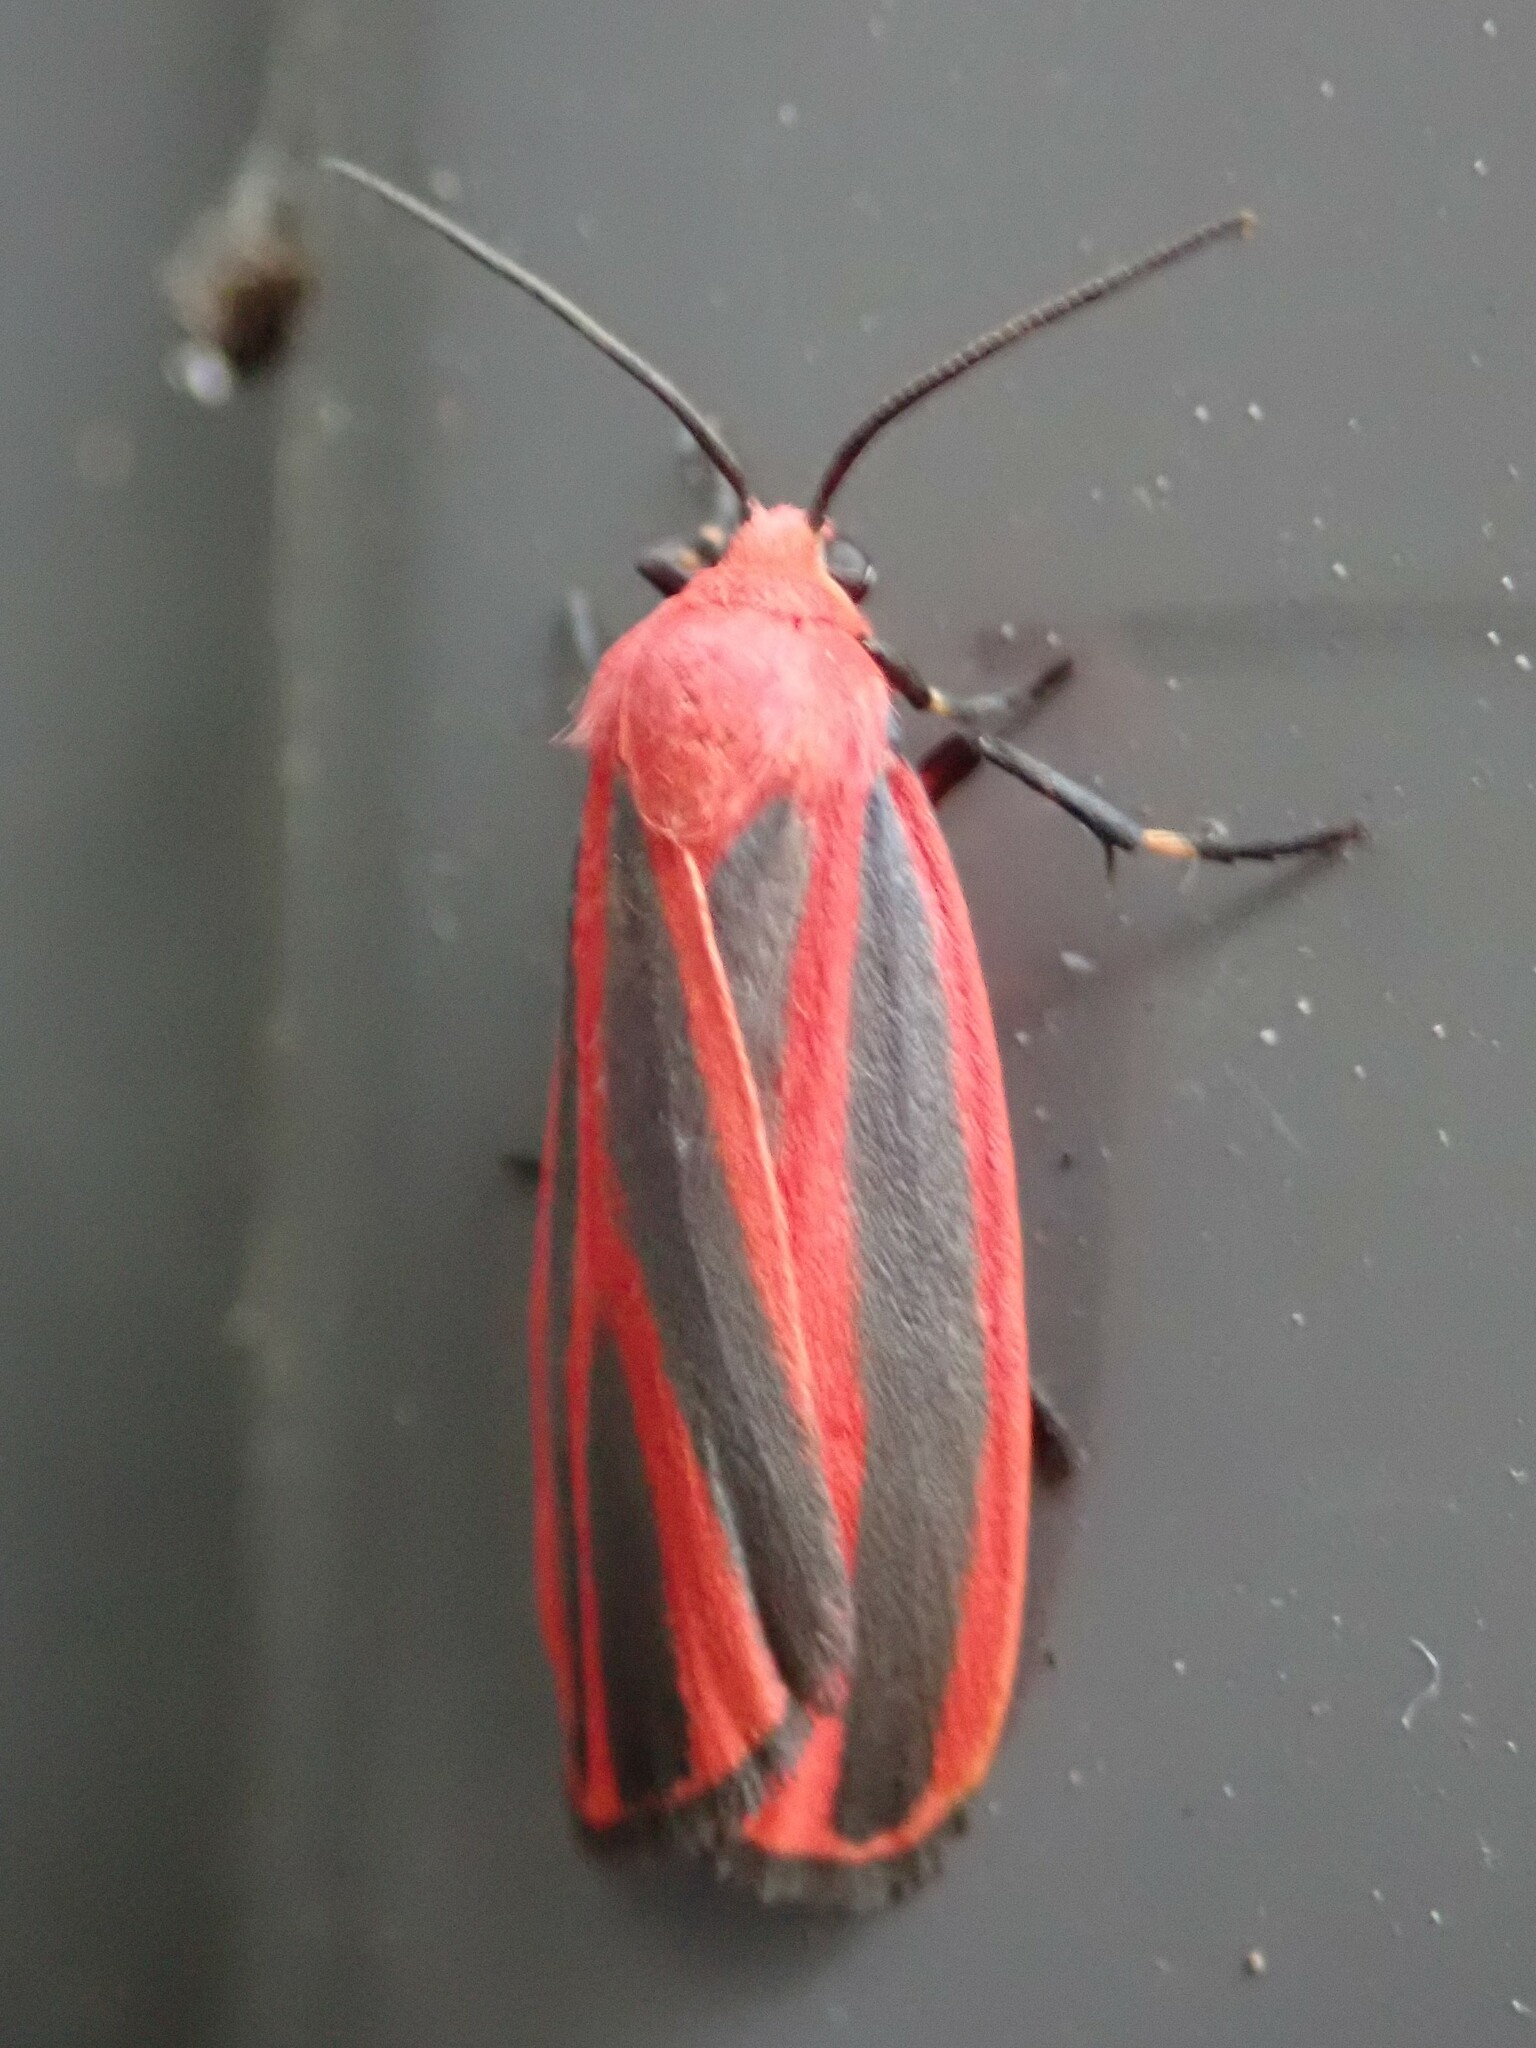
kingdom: Animalia
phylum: Arthropoda
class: Insecta
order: Lepidoptera
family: Erebidae
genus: Hypoprepia
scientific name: Hypoprepia miniata
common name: Scarlet-winged lichen moth
